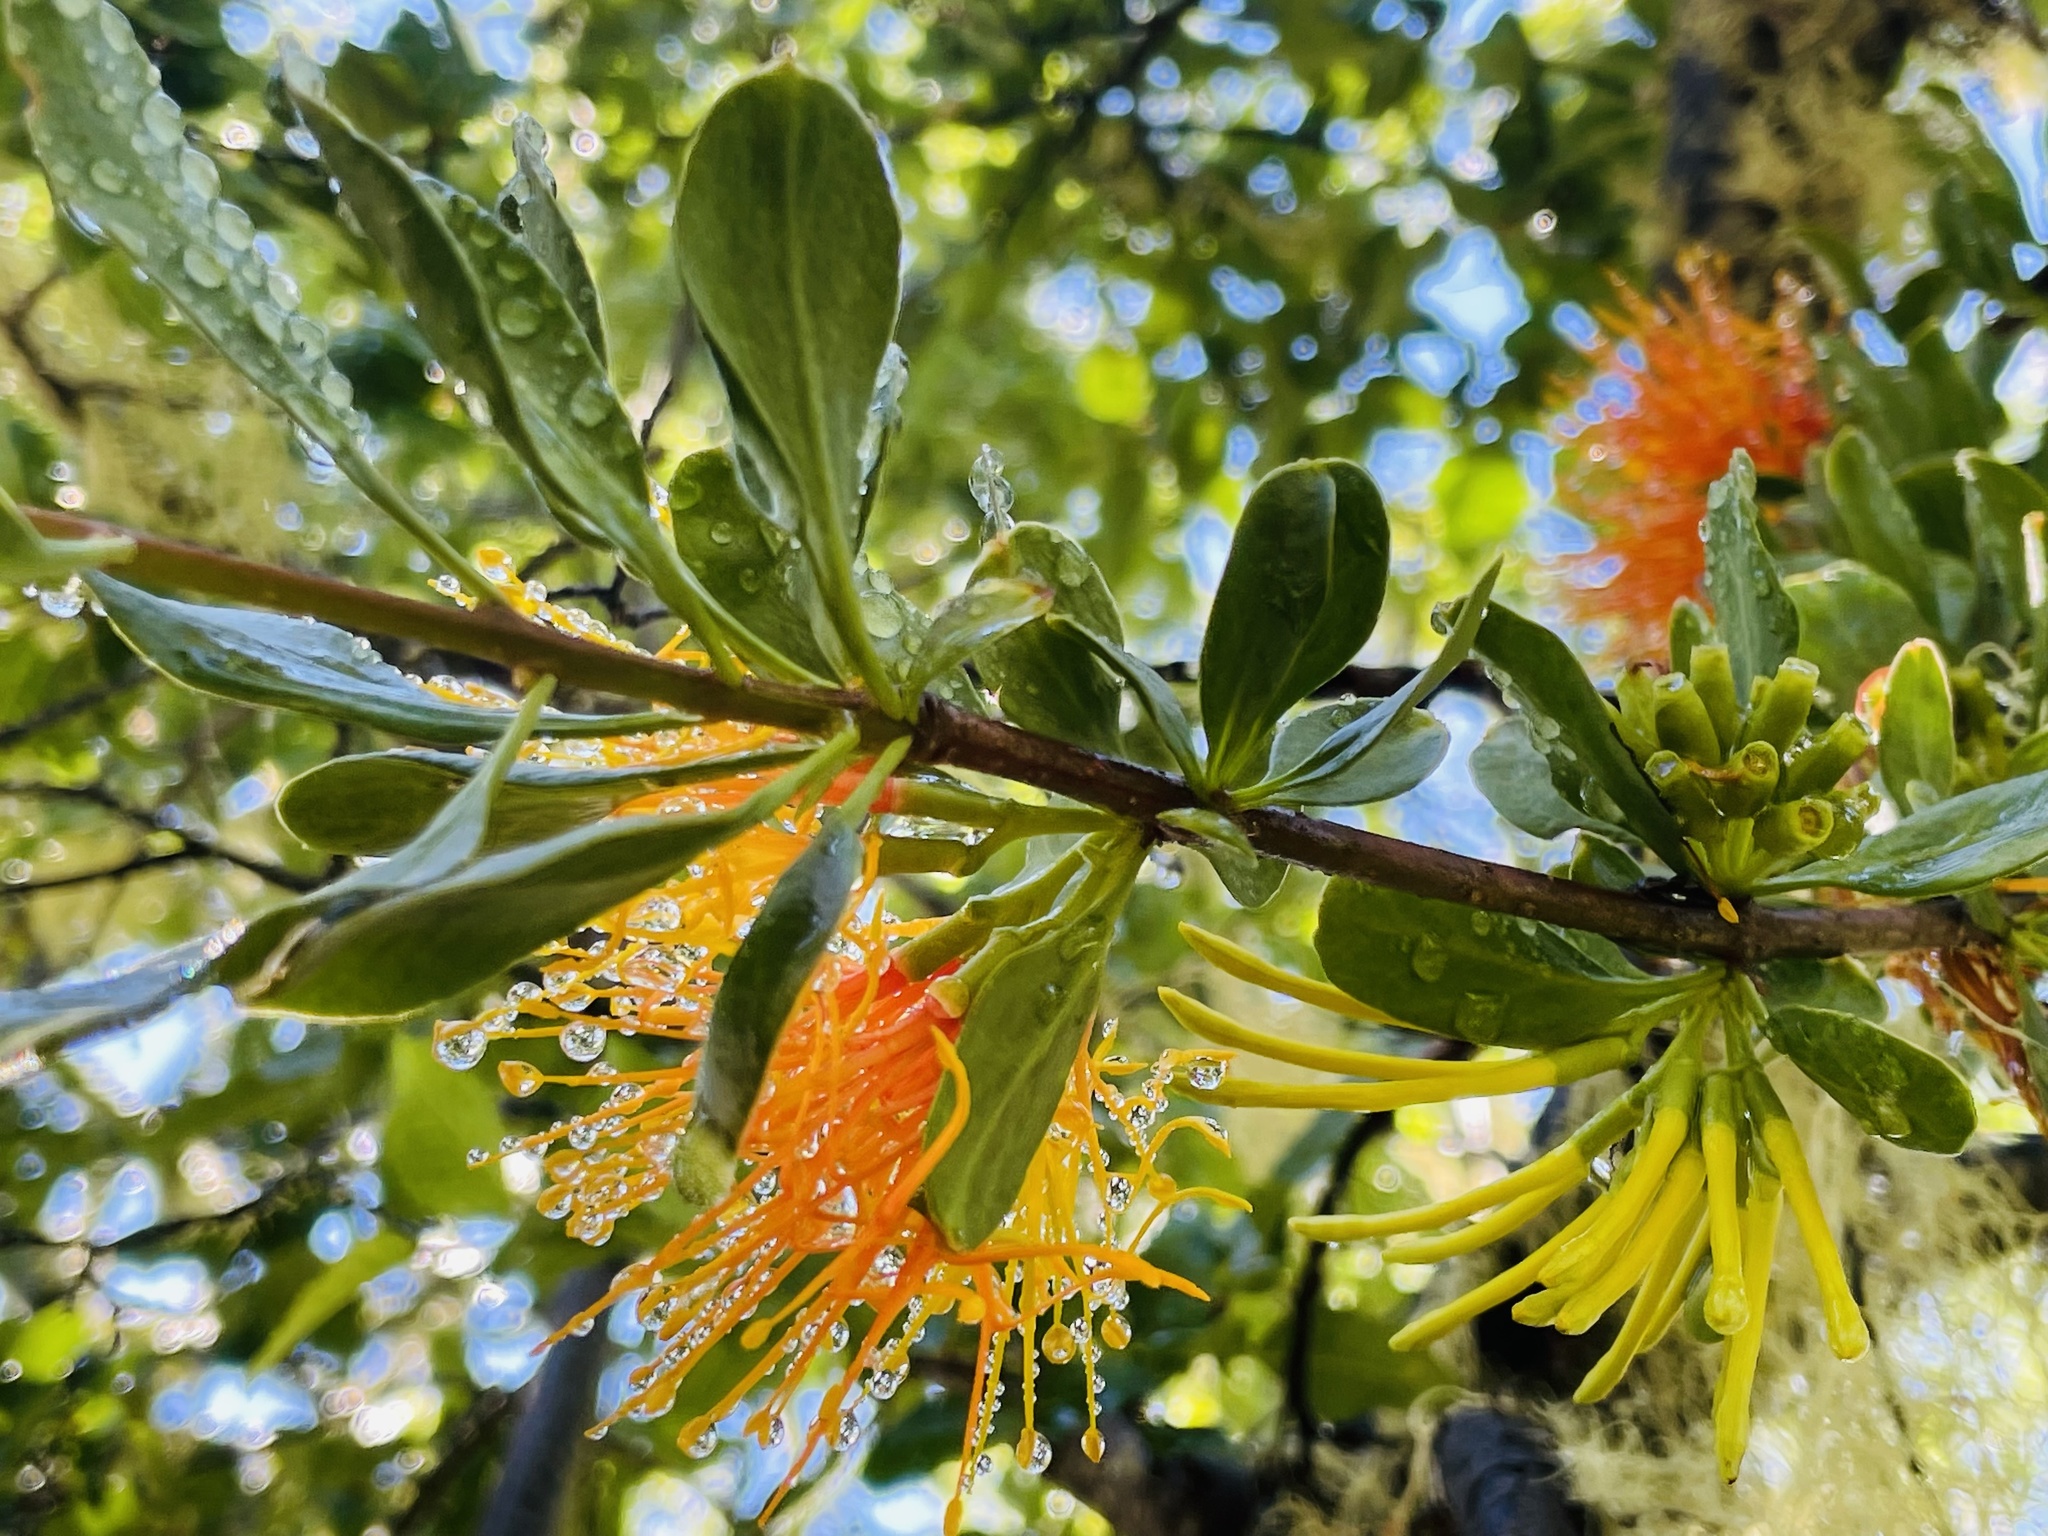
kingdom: Plantae
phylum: Tracheophyta
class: Magnoliopsida
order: Santalales
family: Loranthaceae
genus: Desmaria
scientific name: Desmaria mutabilis
